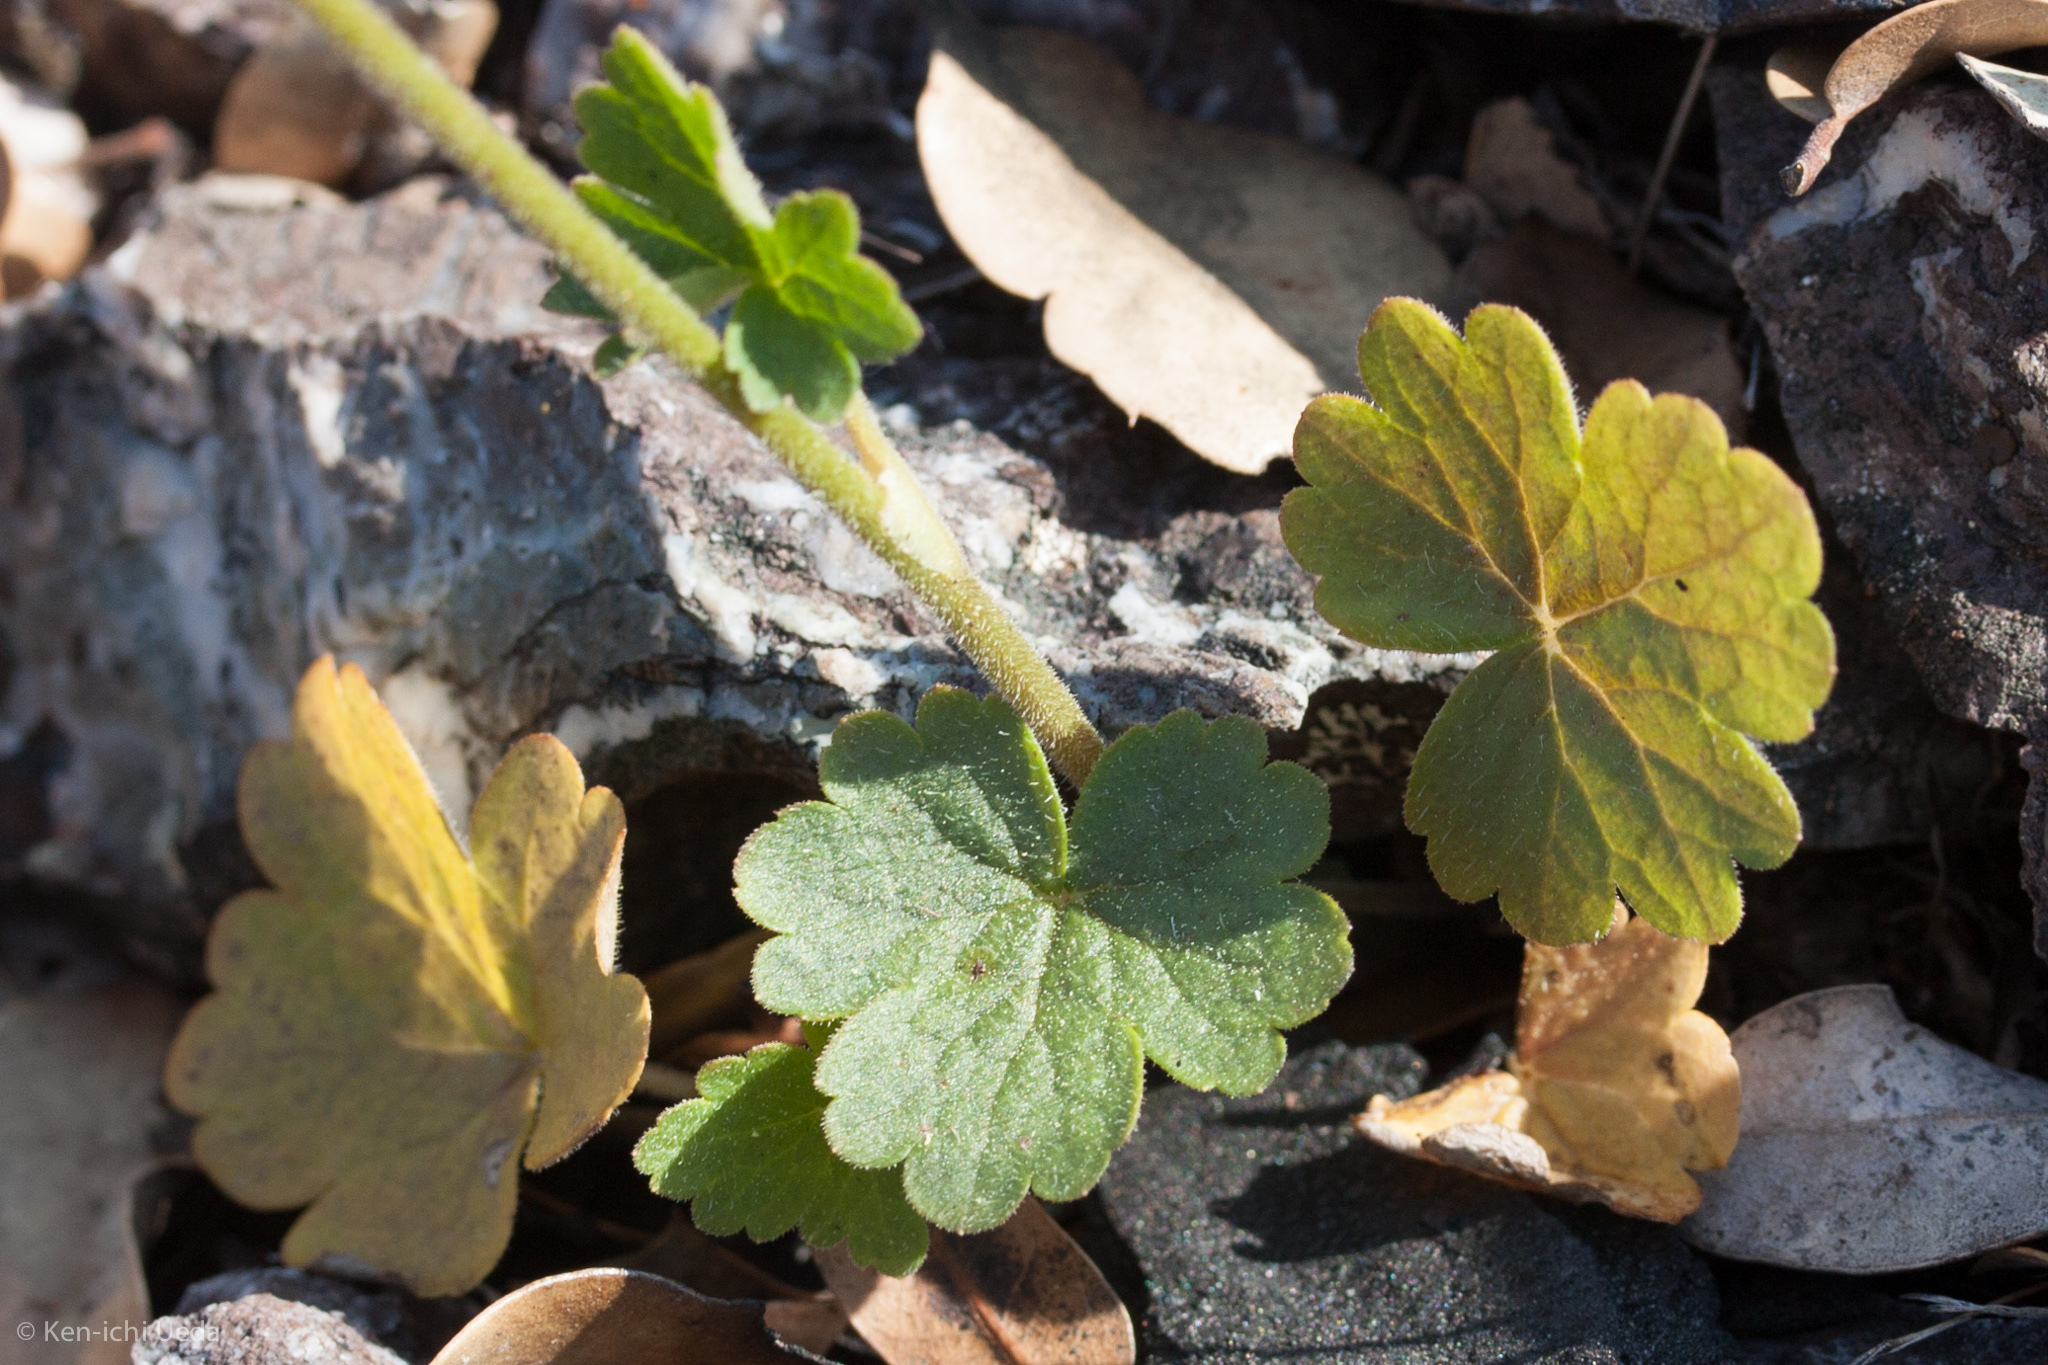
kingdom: Plantae
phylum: Tracheophyta
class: Magnoliopsida
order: Saxifragales
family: Saxifragaceae
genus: Lithophragma
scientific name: Lithophragma affine
